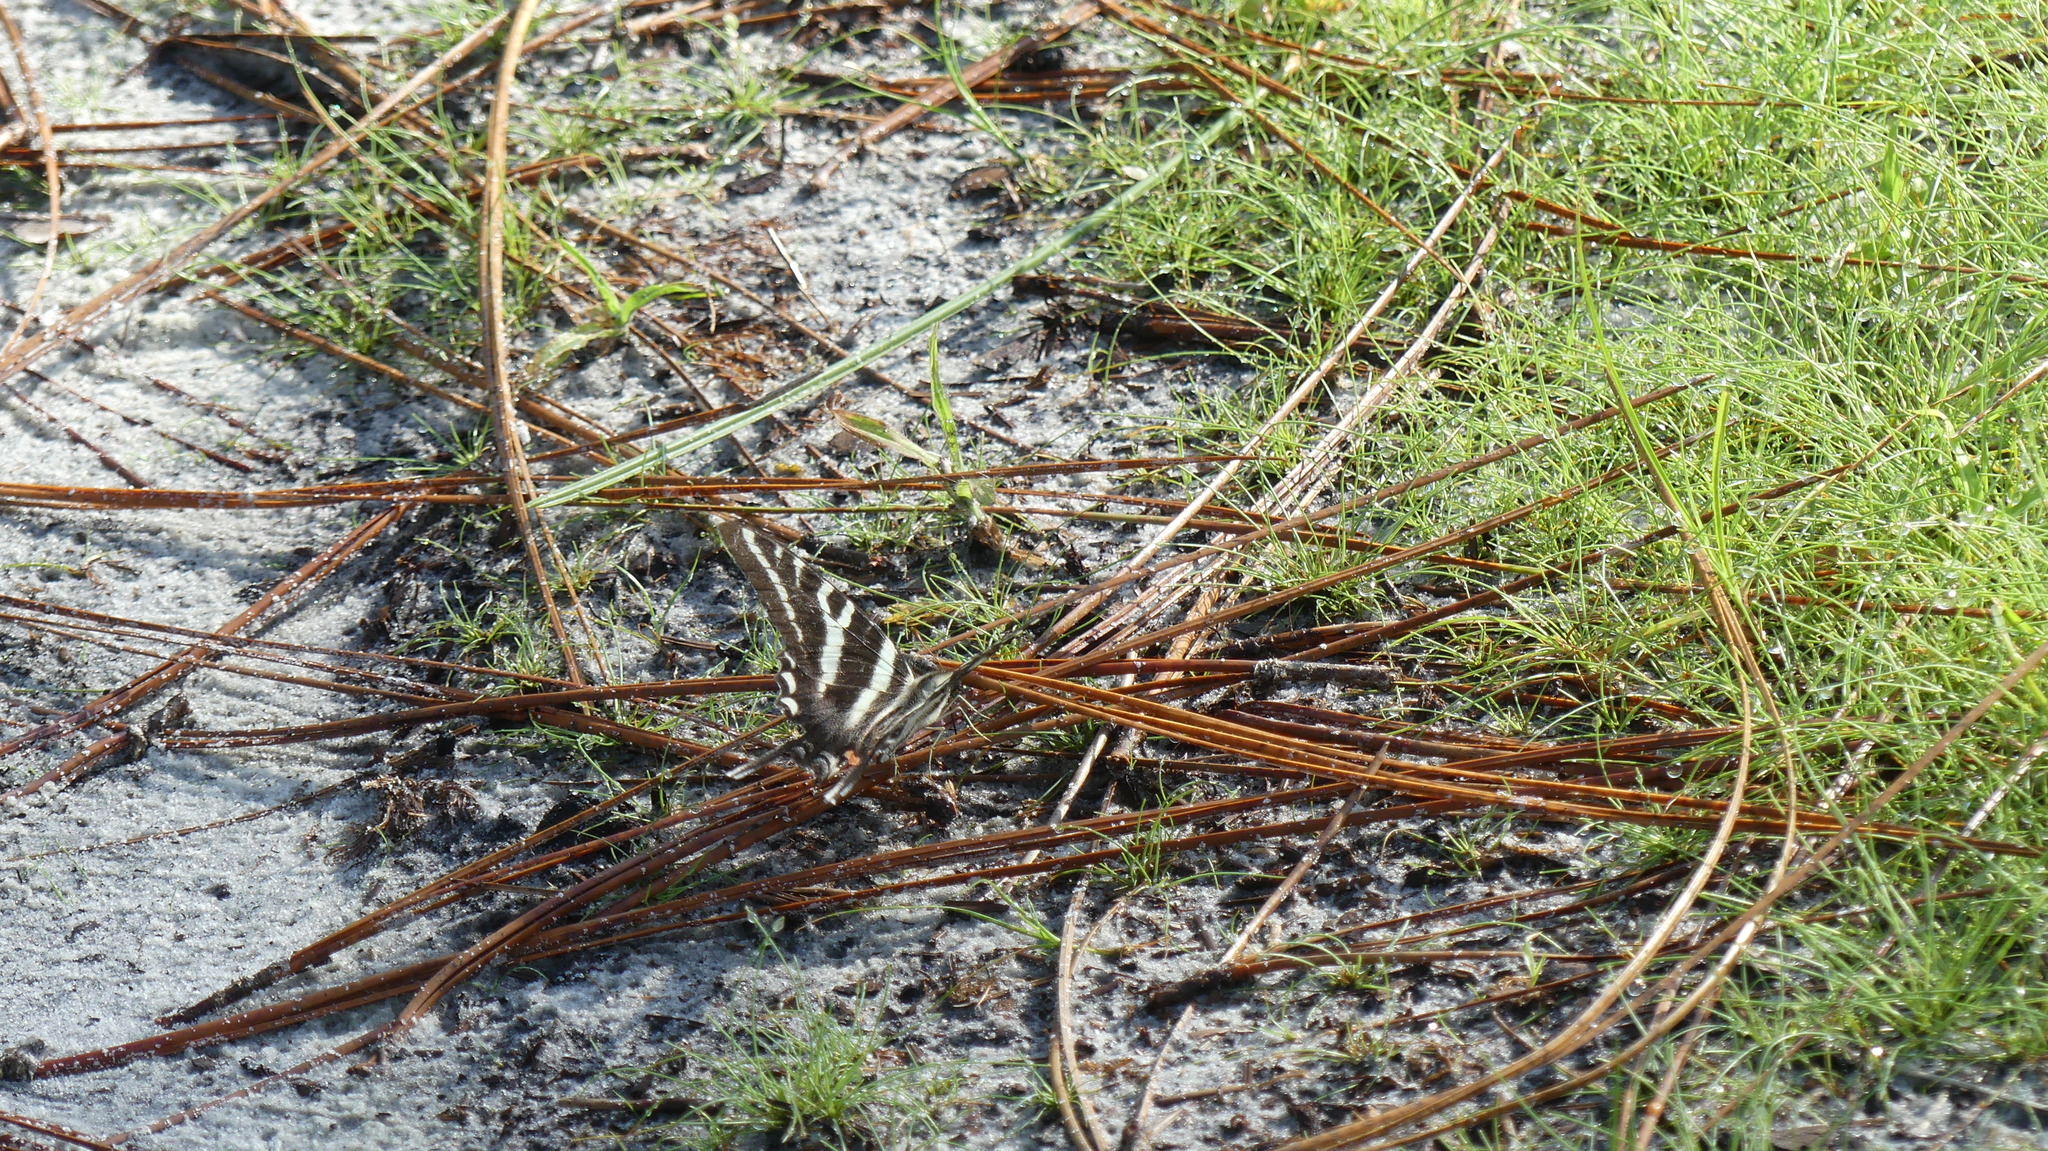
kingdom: Animalia
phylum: Arthropoda
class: Insecta
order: Lepidoptera
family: Papilionidae
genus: Protographium
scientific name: Protographium marcellus
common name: Zebra swallowtail
